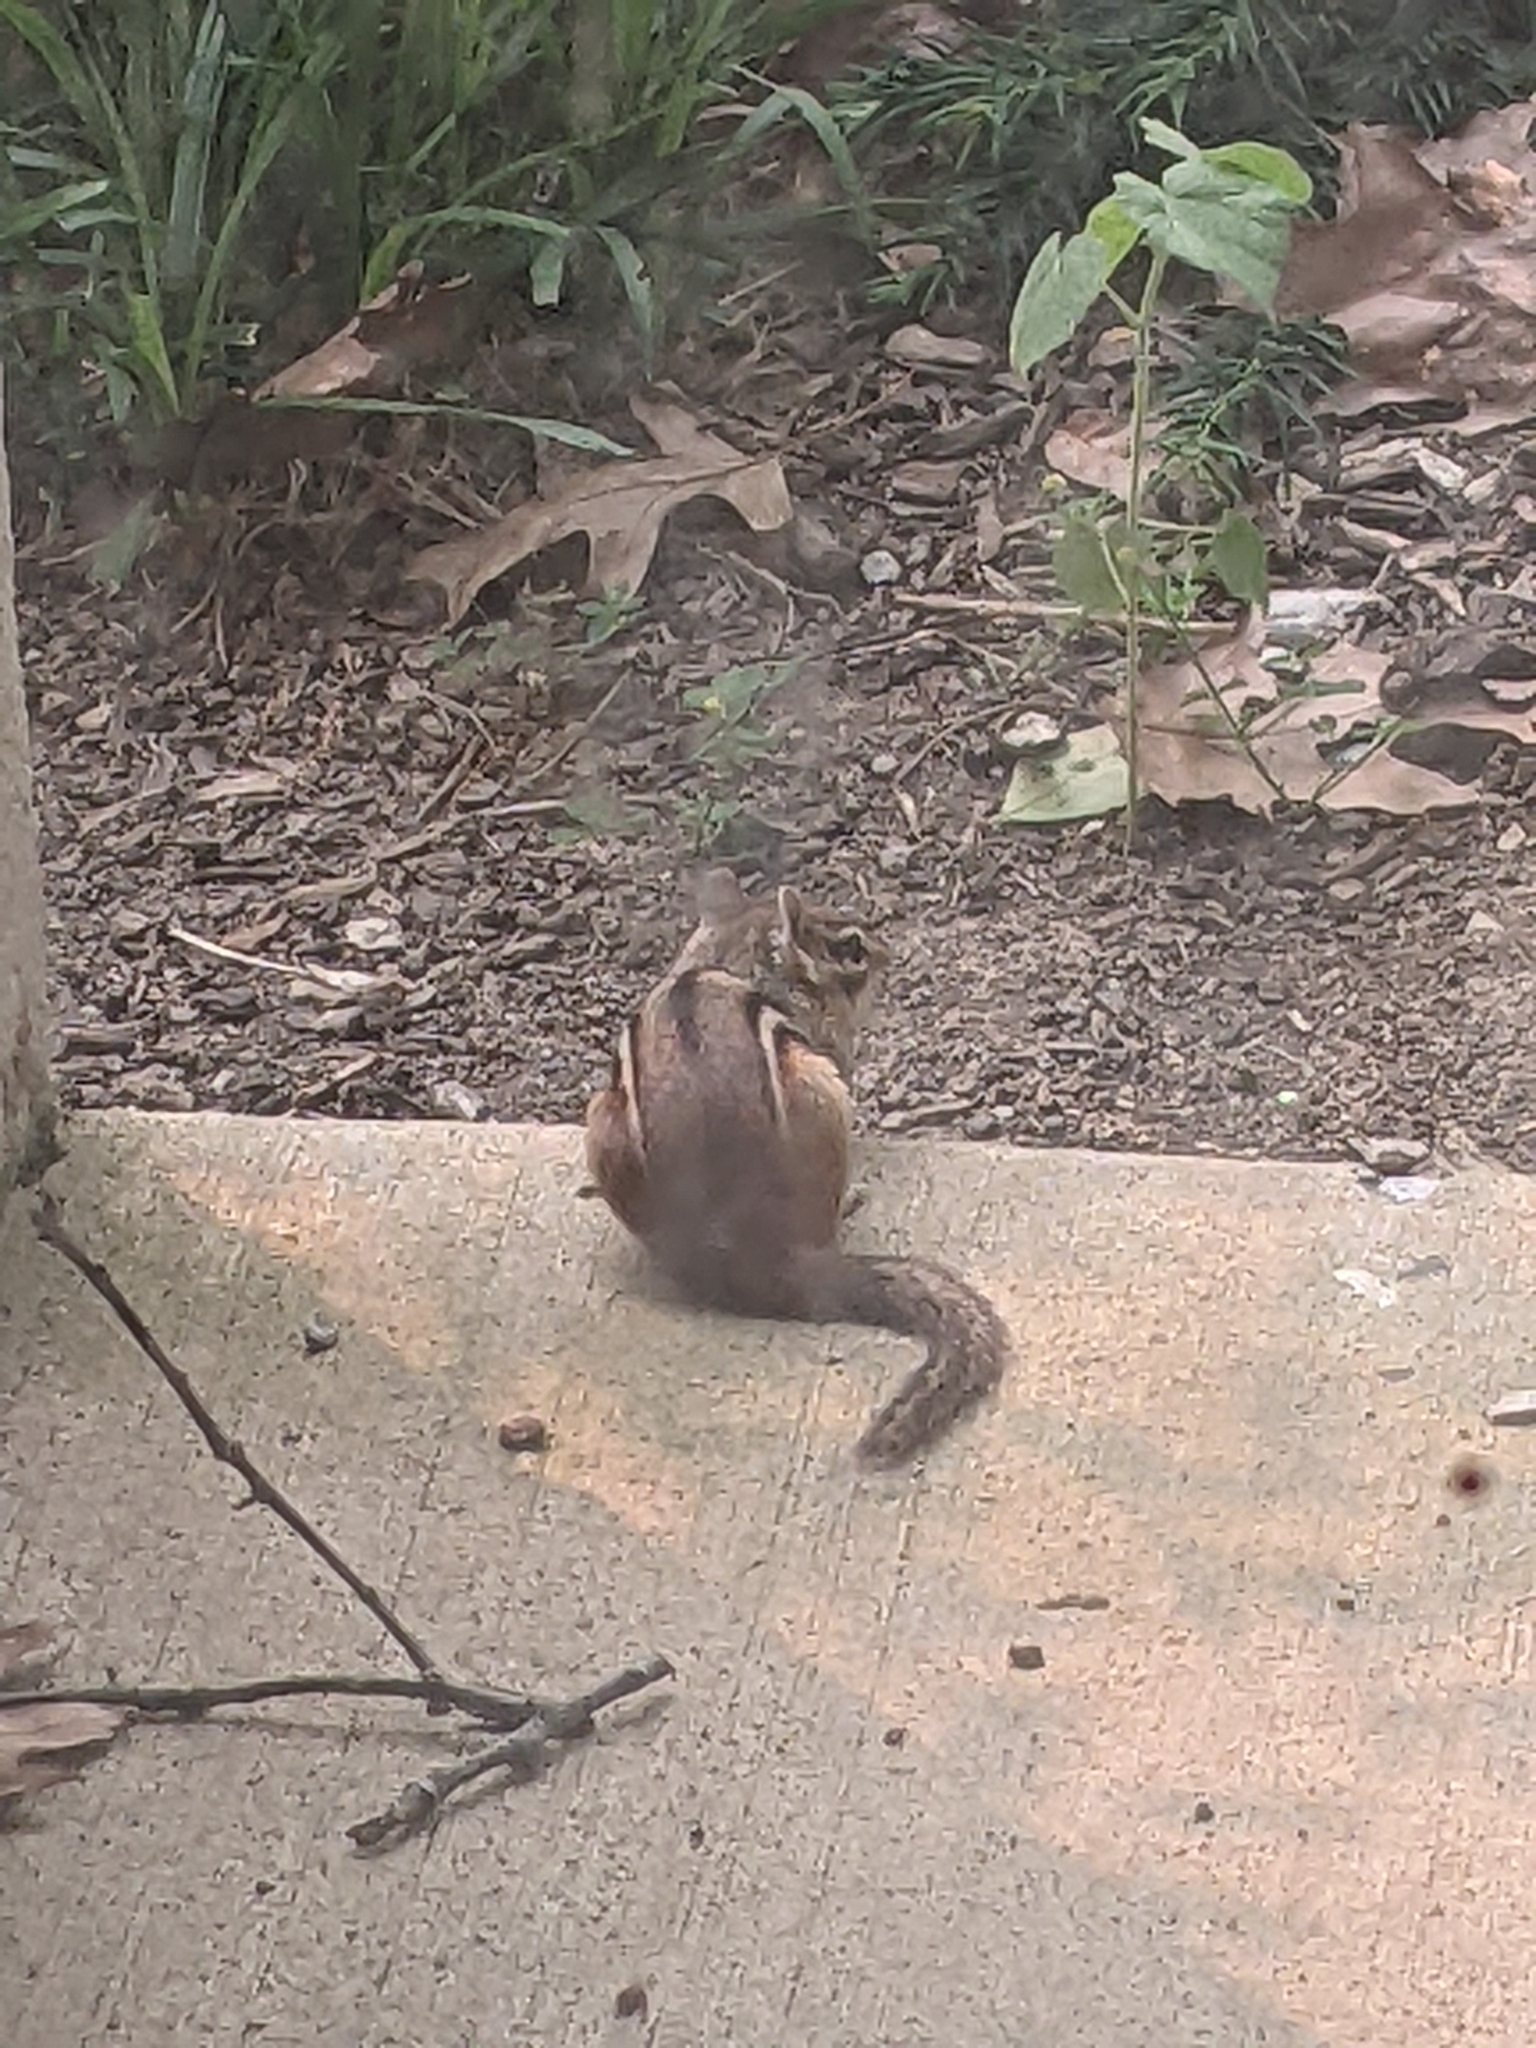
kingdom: Animalia
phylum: Chordata
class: Mammalia
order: Rodentia
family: Sciuridae
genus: Tamias
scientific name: Tamias striatus
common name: Eastern chipmunk
